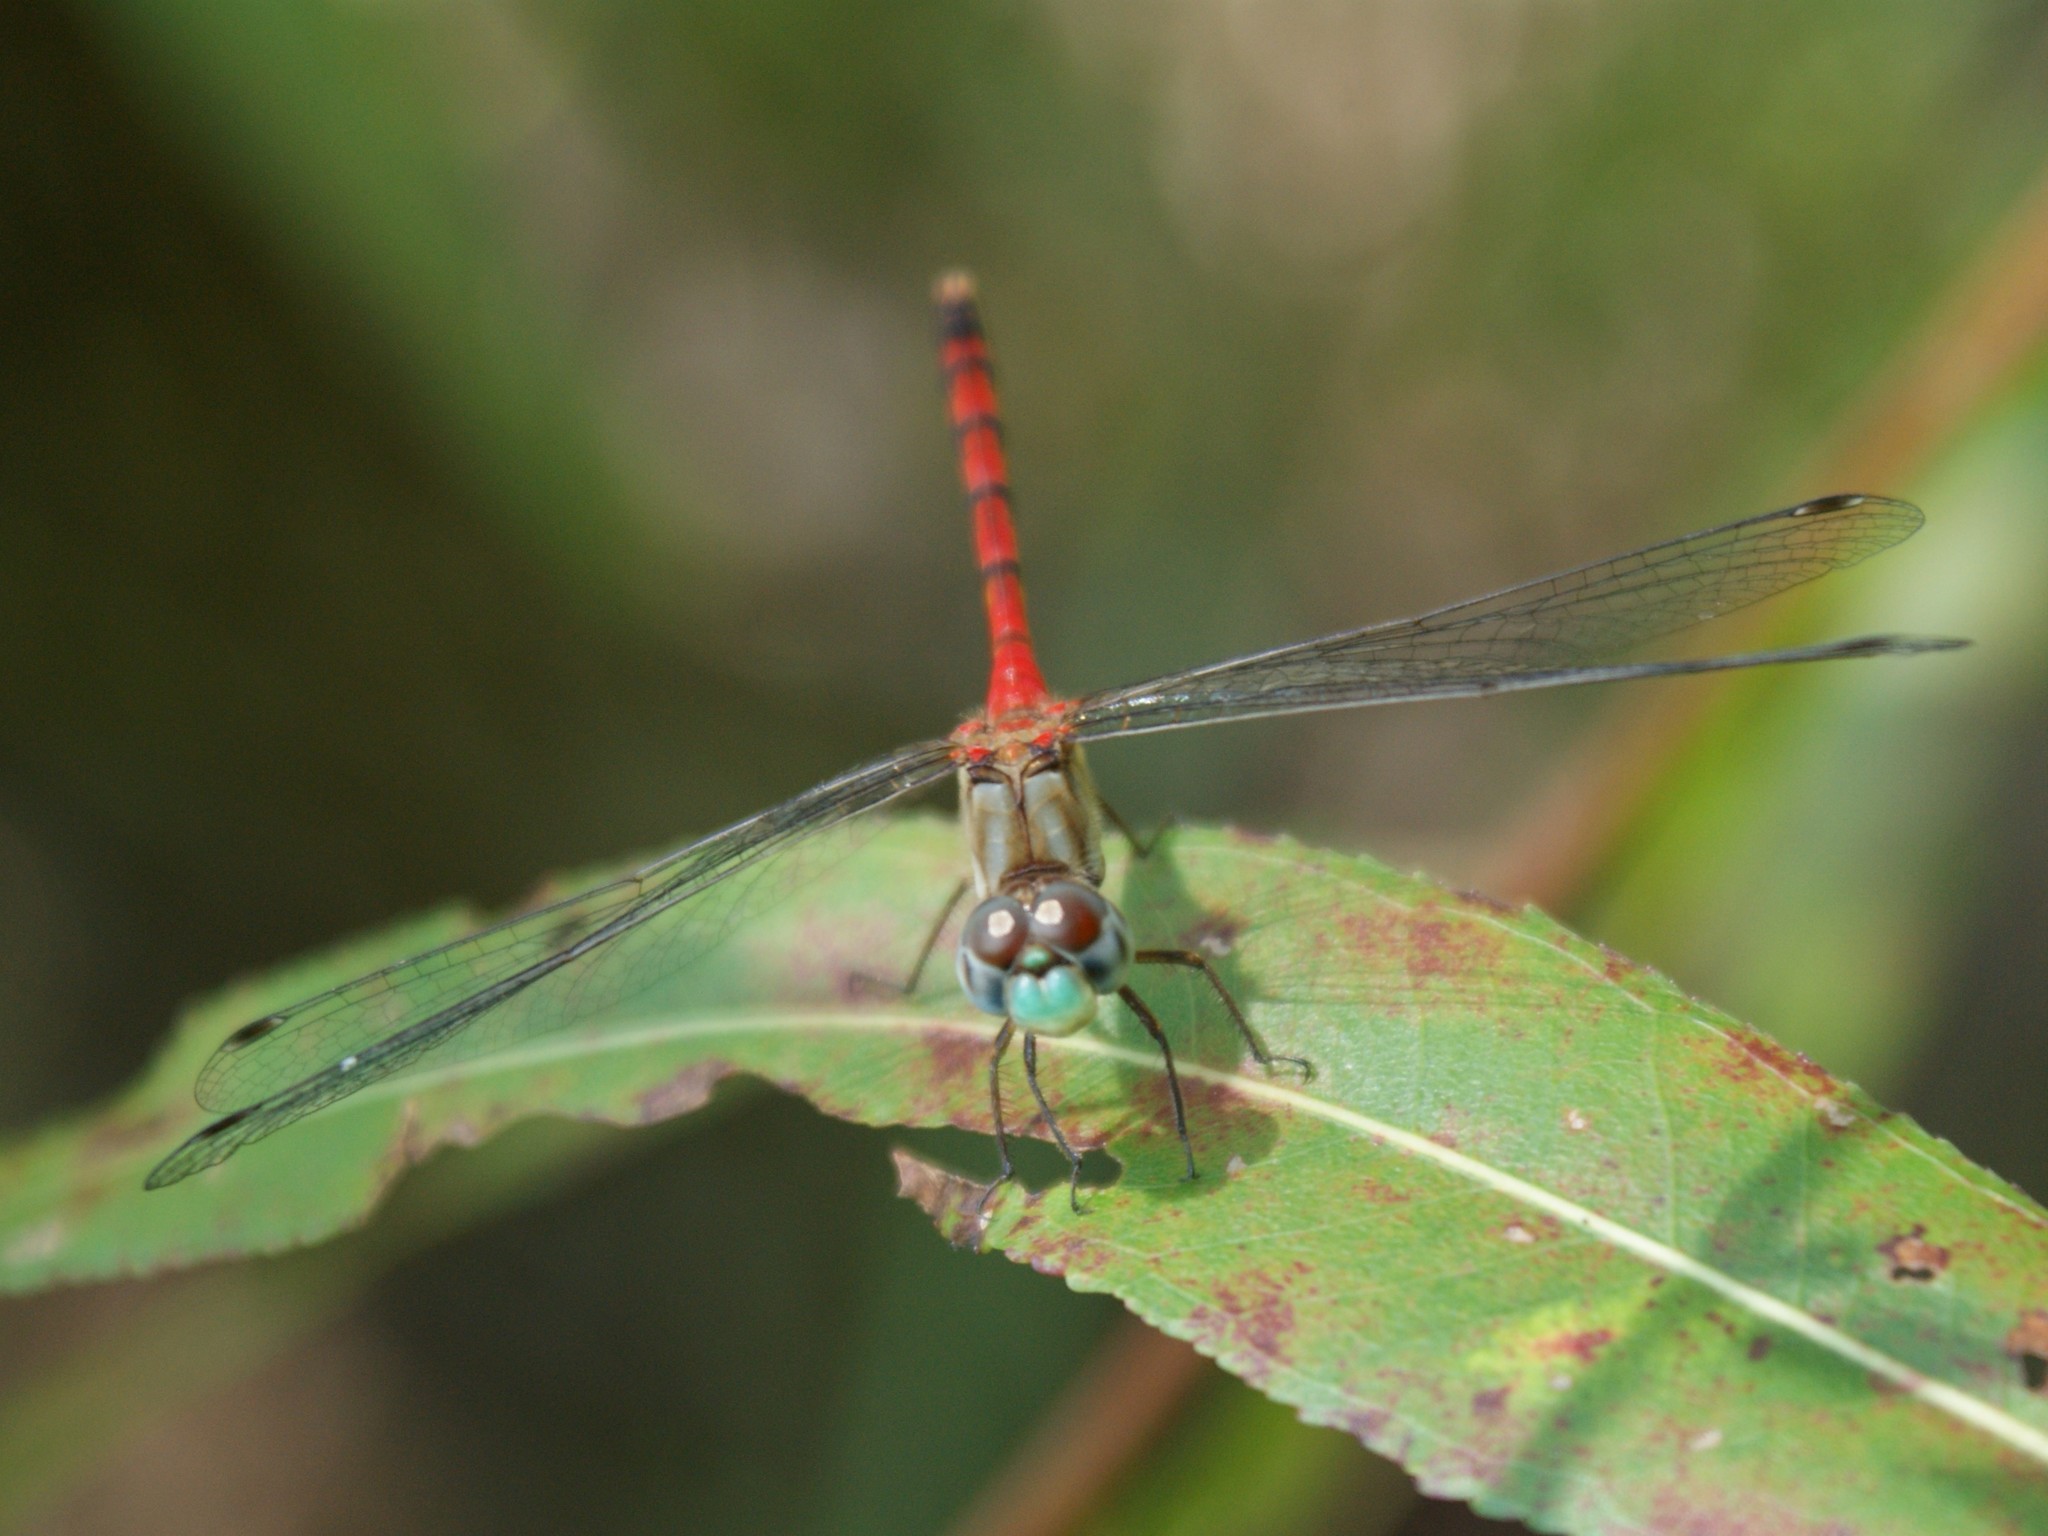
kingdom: Animalia
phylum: Arthropoda
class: Insecta
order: Odonata
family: Libellulidae
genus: Sympetrum
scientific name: Sympetrum ambiguum
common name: Blue-faced meadowhawk
